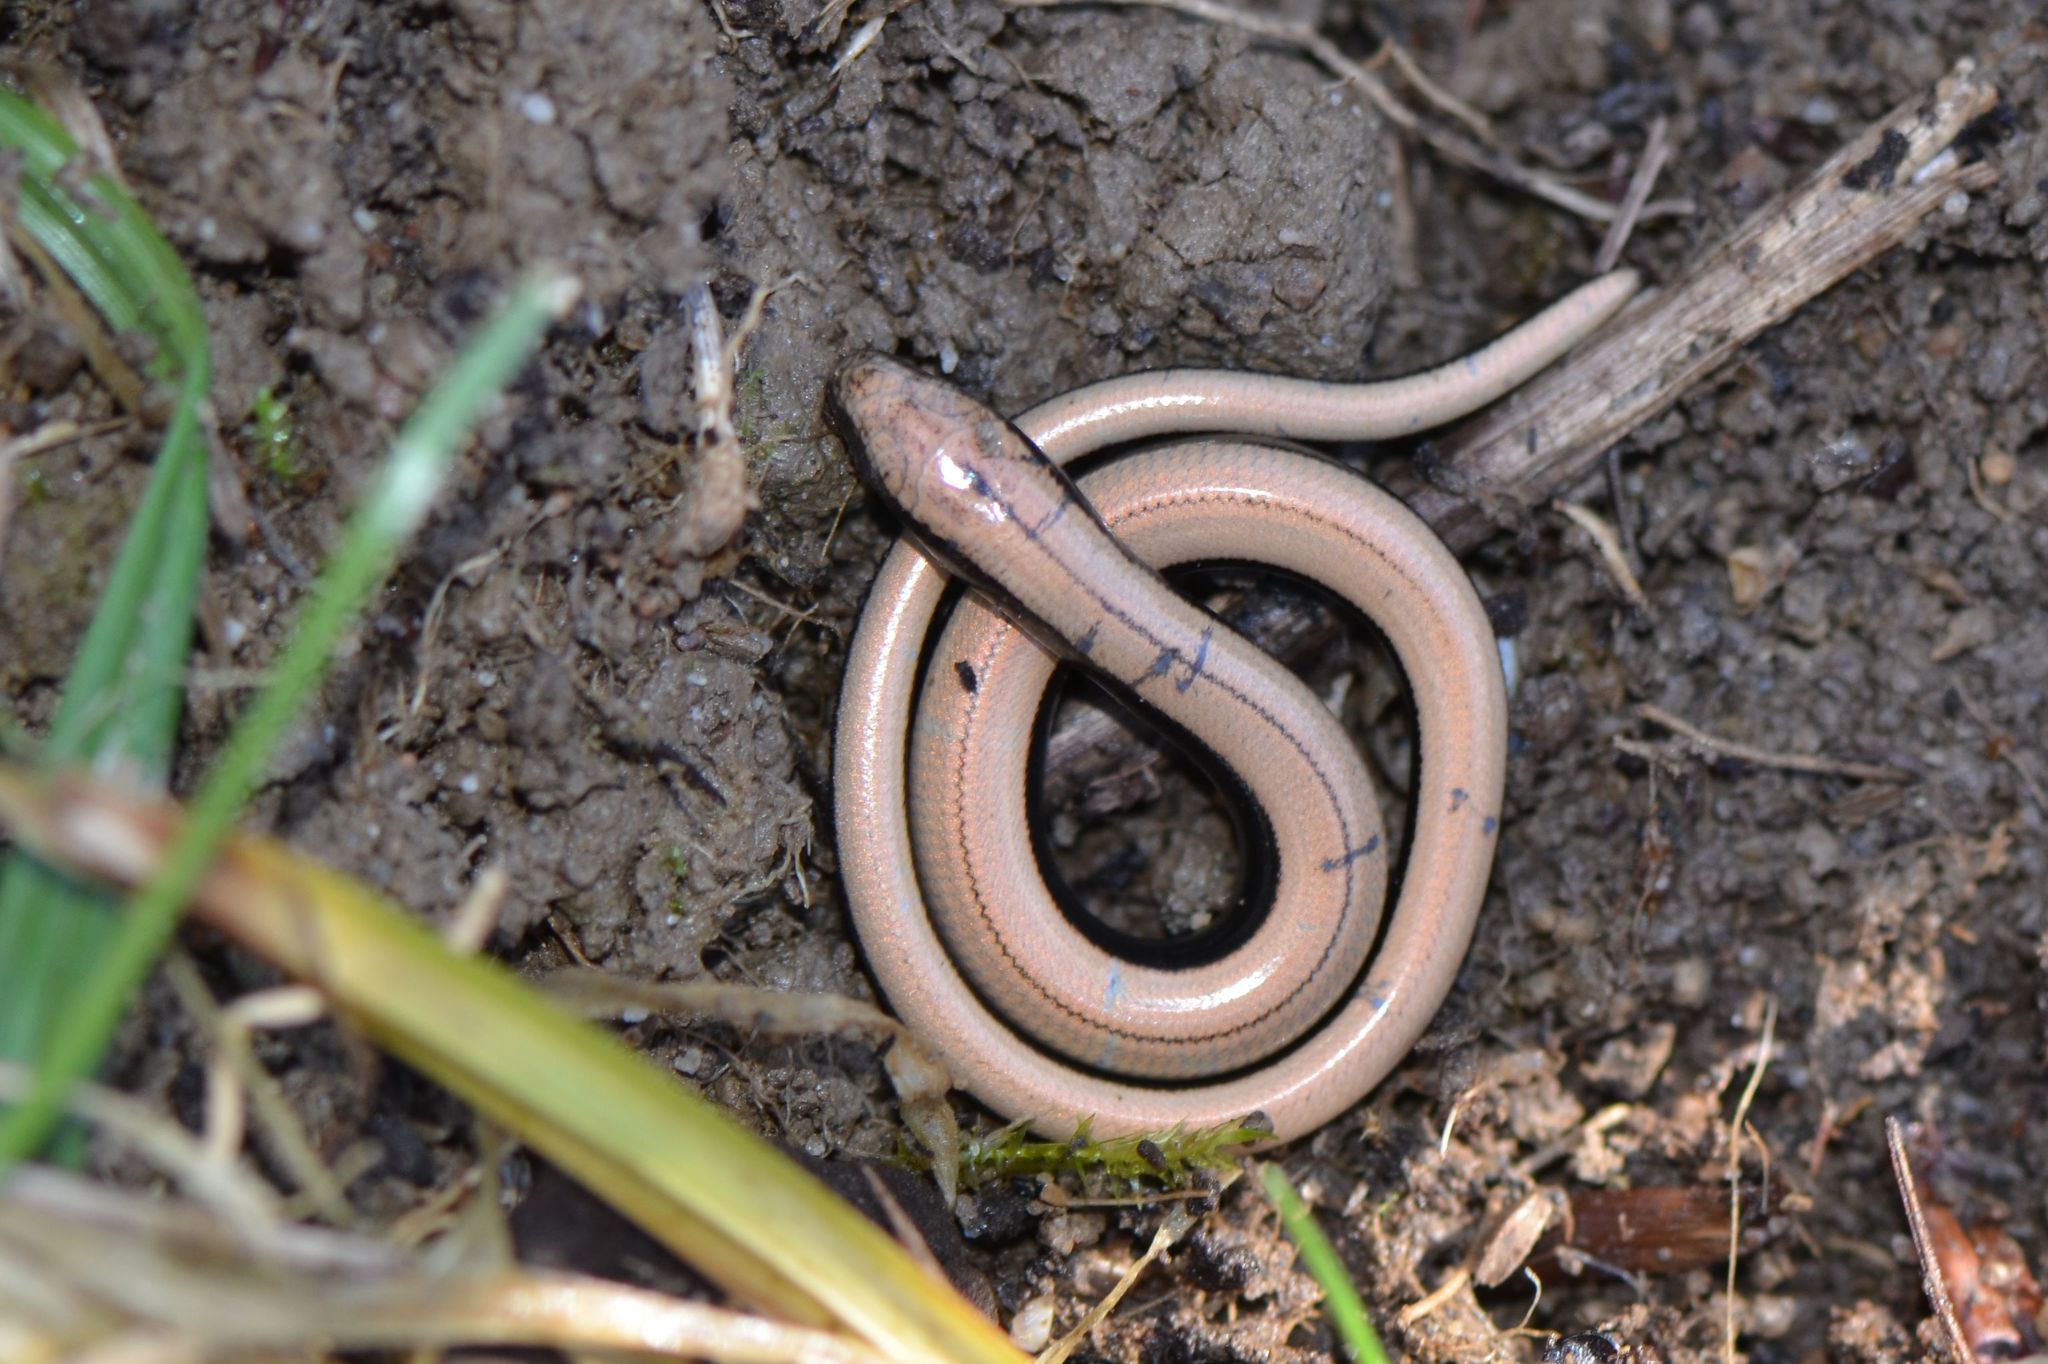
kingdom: Animalia
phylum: Chordata
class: Squamata
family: Anguidae
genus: Anguis
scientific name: Anguis fragilis
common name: Slow worm
